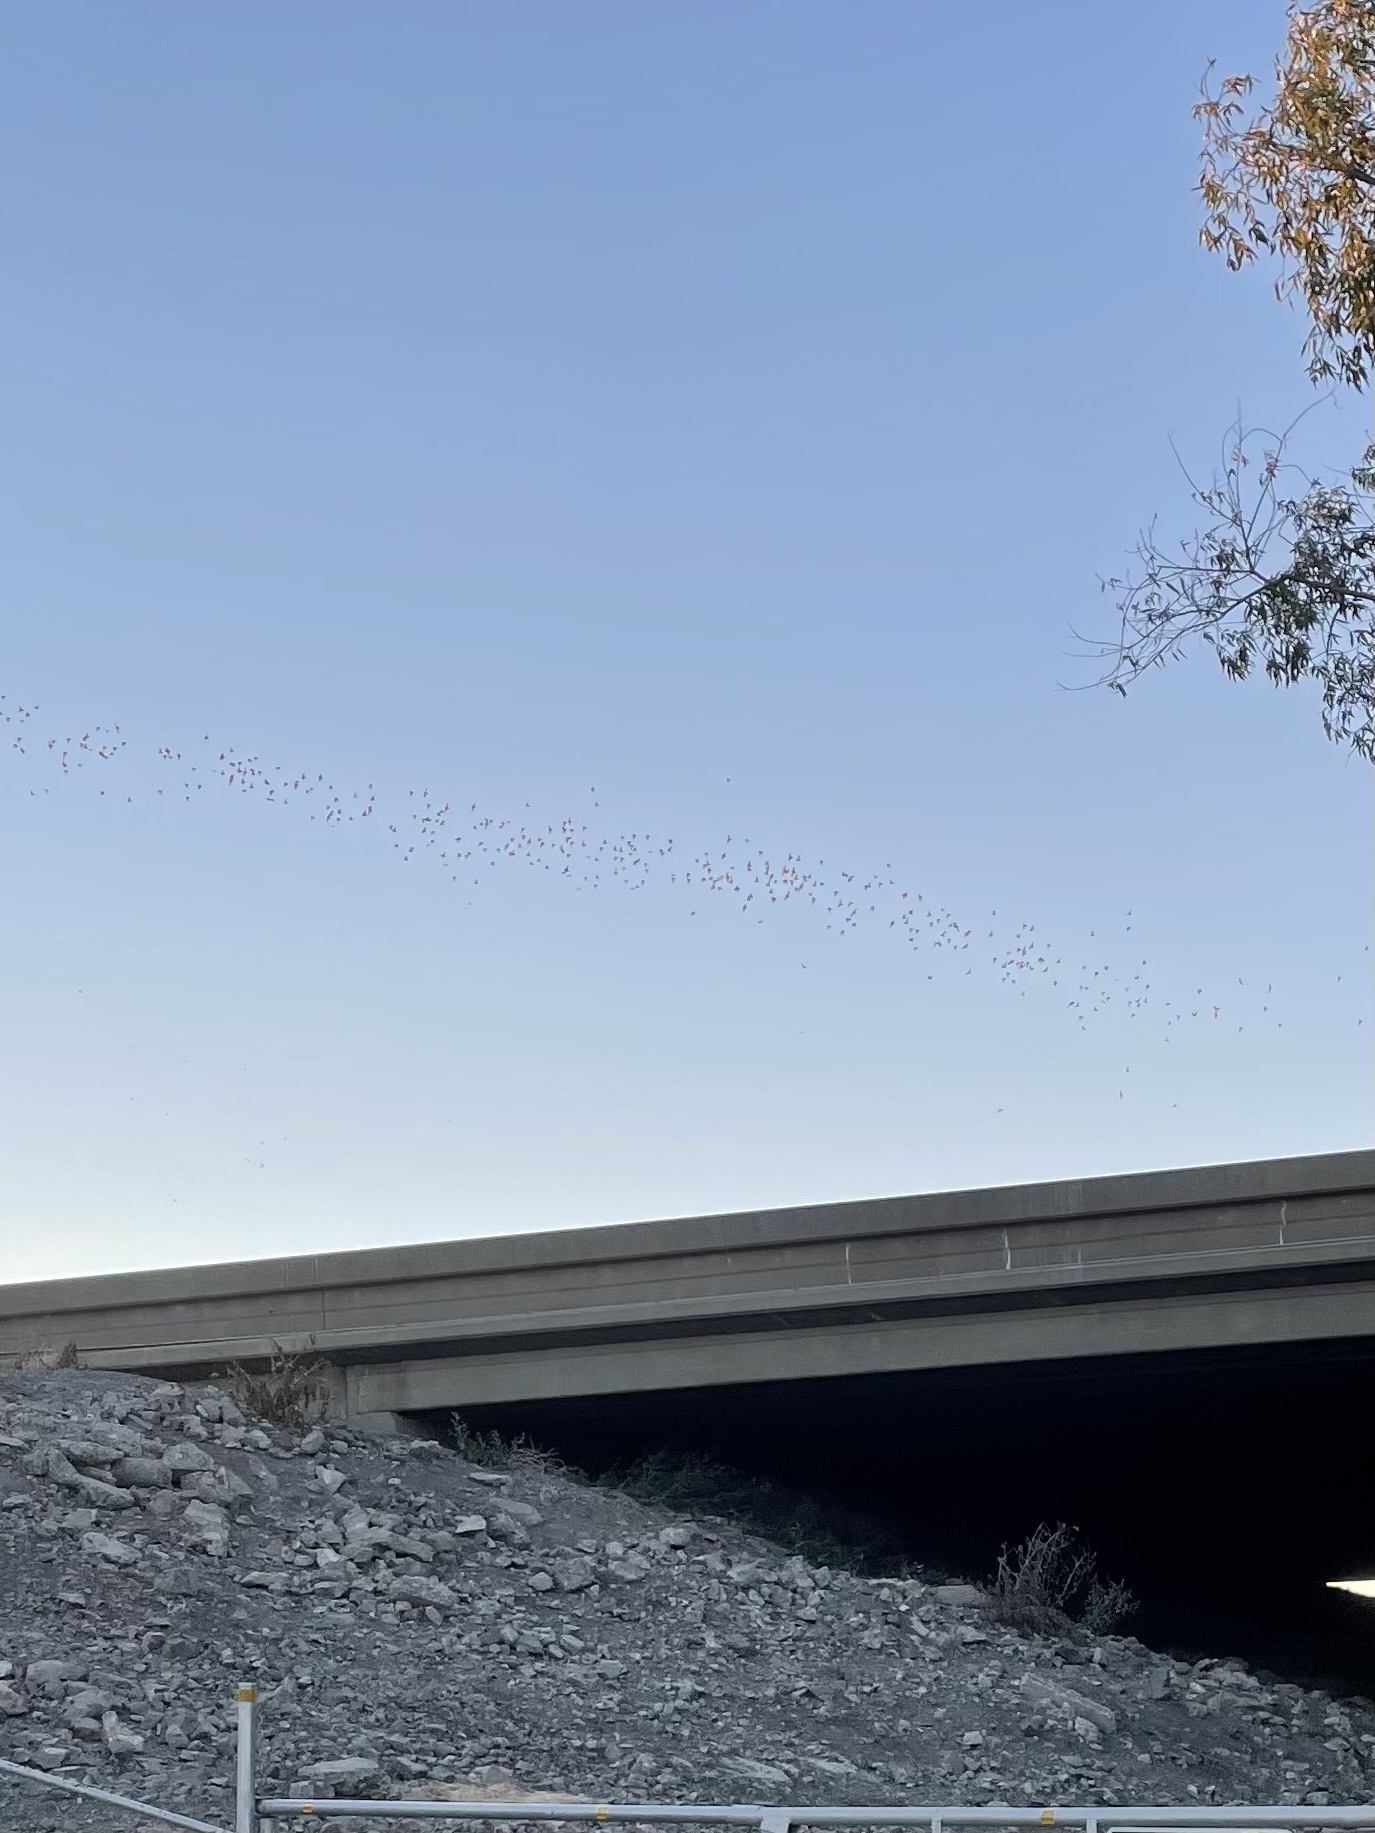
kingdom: Animalia
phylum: Chordata
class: Mammalia
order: Chiroptera
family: Molossidae
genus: Tadarida
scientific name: Tadarida brasiliensis
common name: Mexican free-tailed bat
